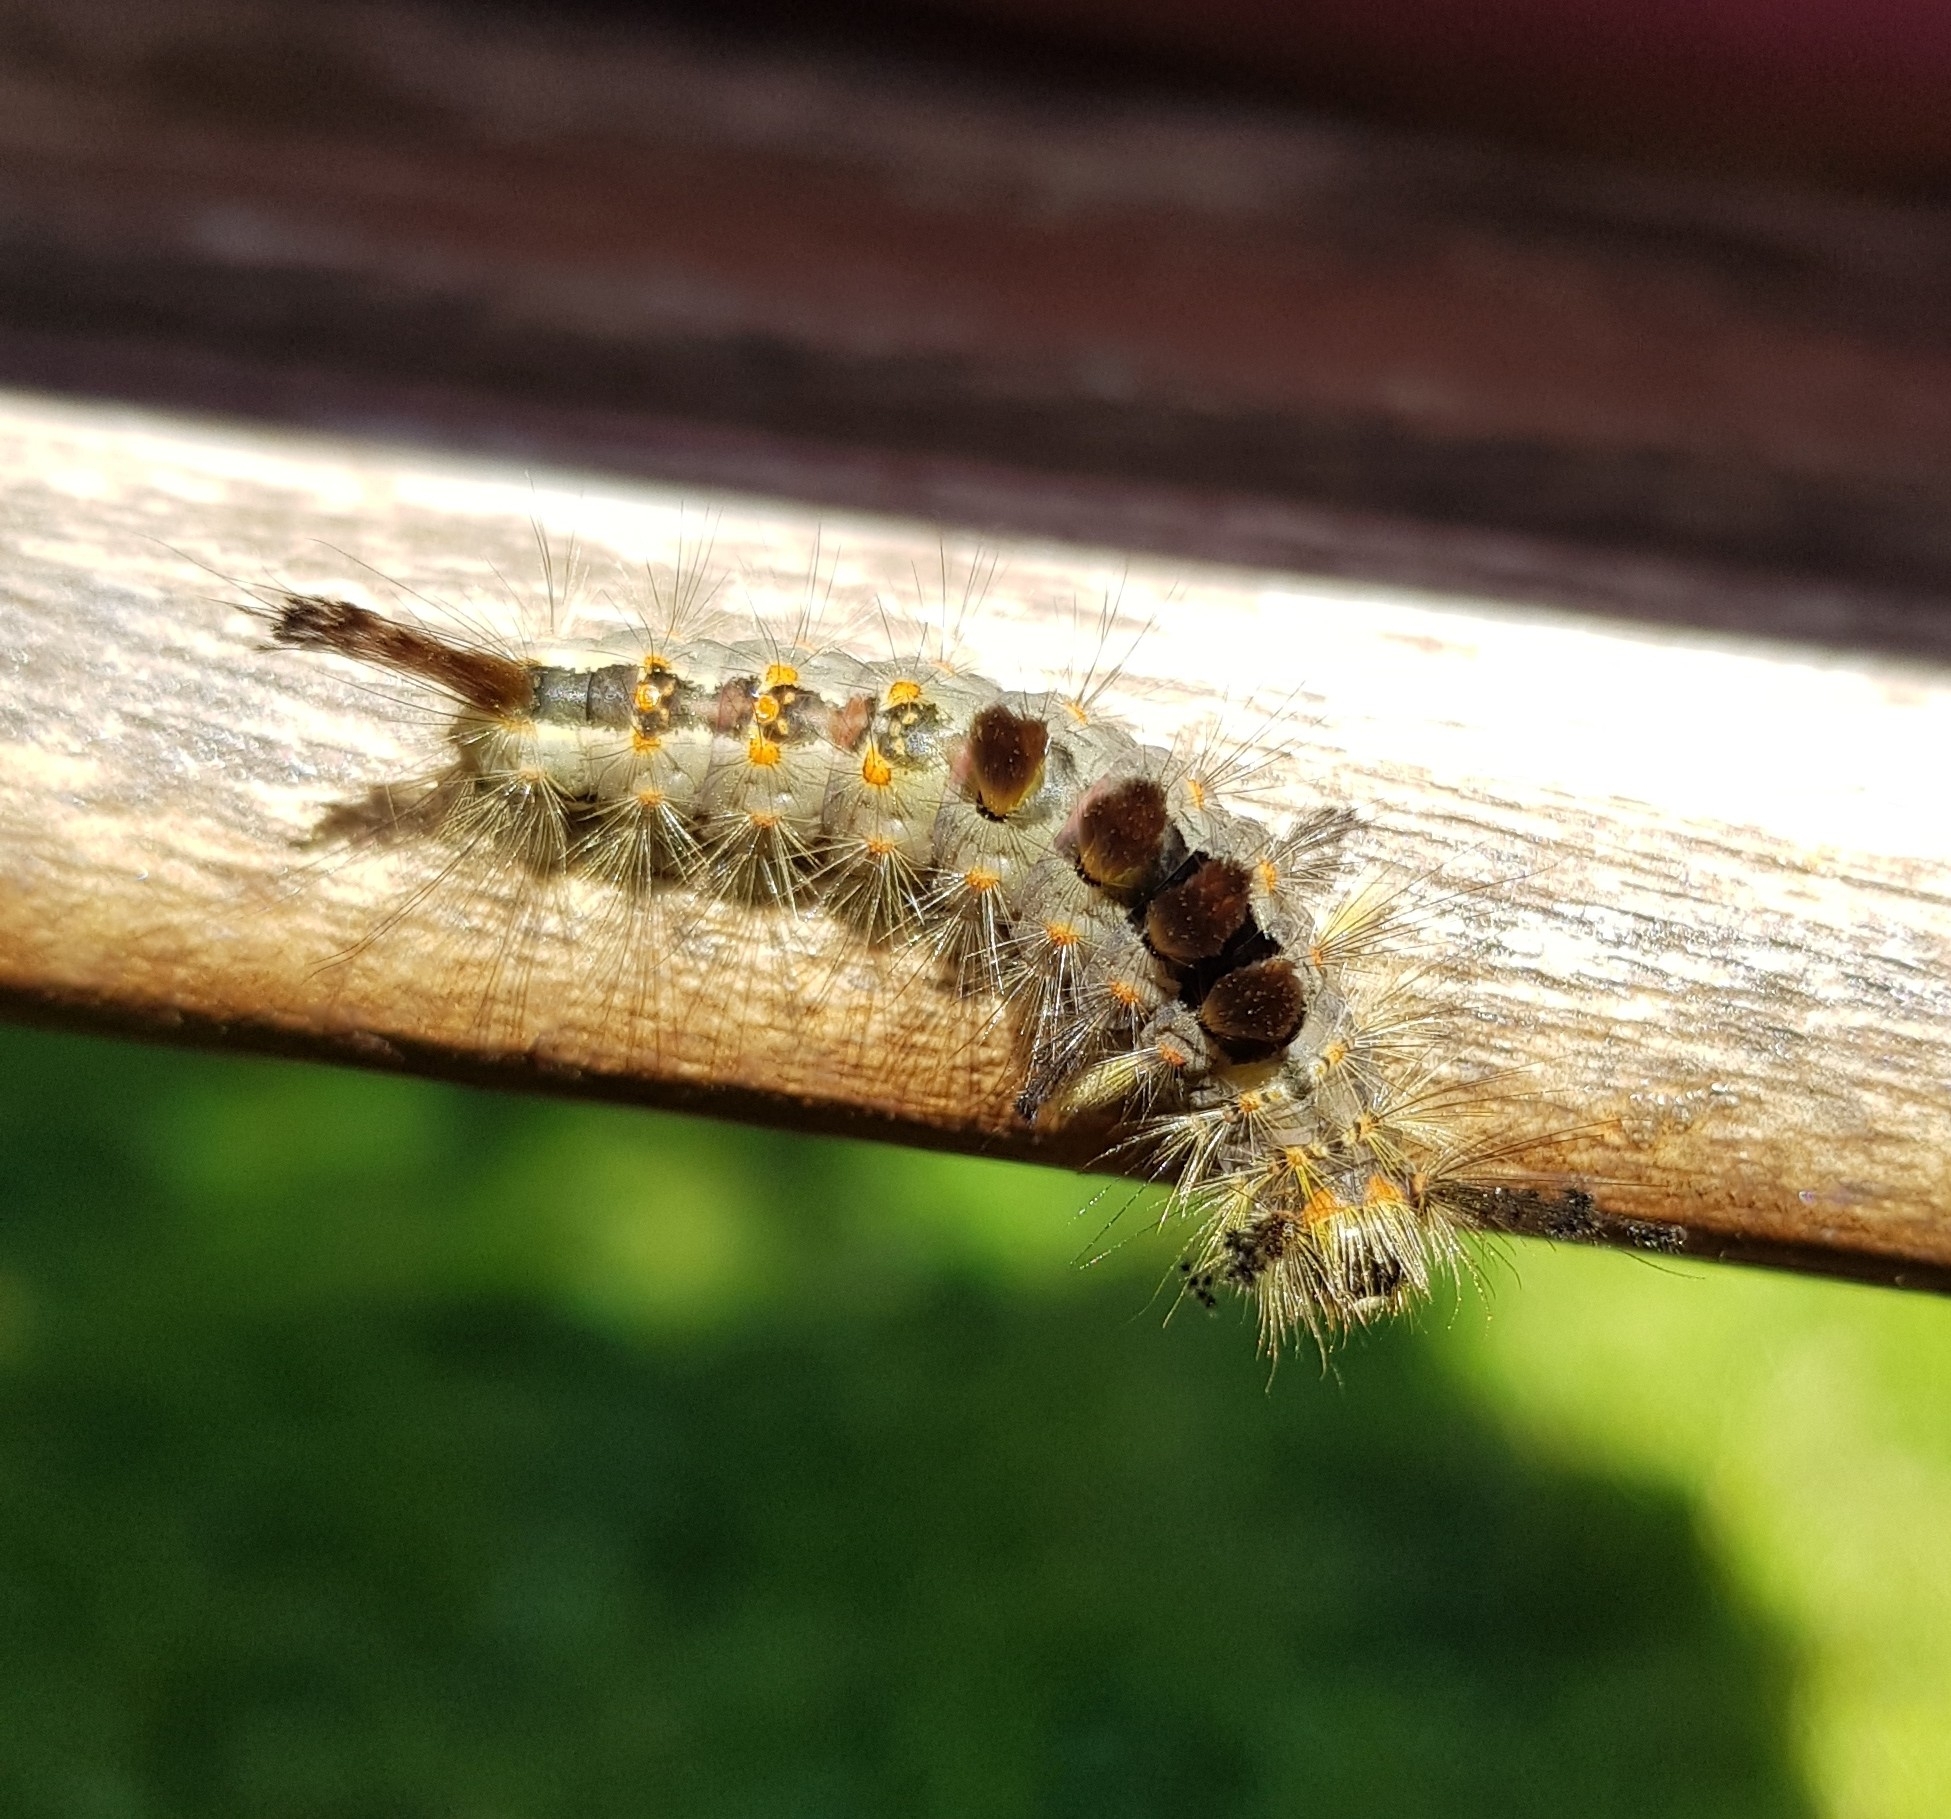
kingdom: Animalia
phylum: Arthropoda
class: Insecta
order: Lepidoptera
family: Erebidae
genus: Orgyia
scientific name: Orgyia antiqua
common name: Vapourer
